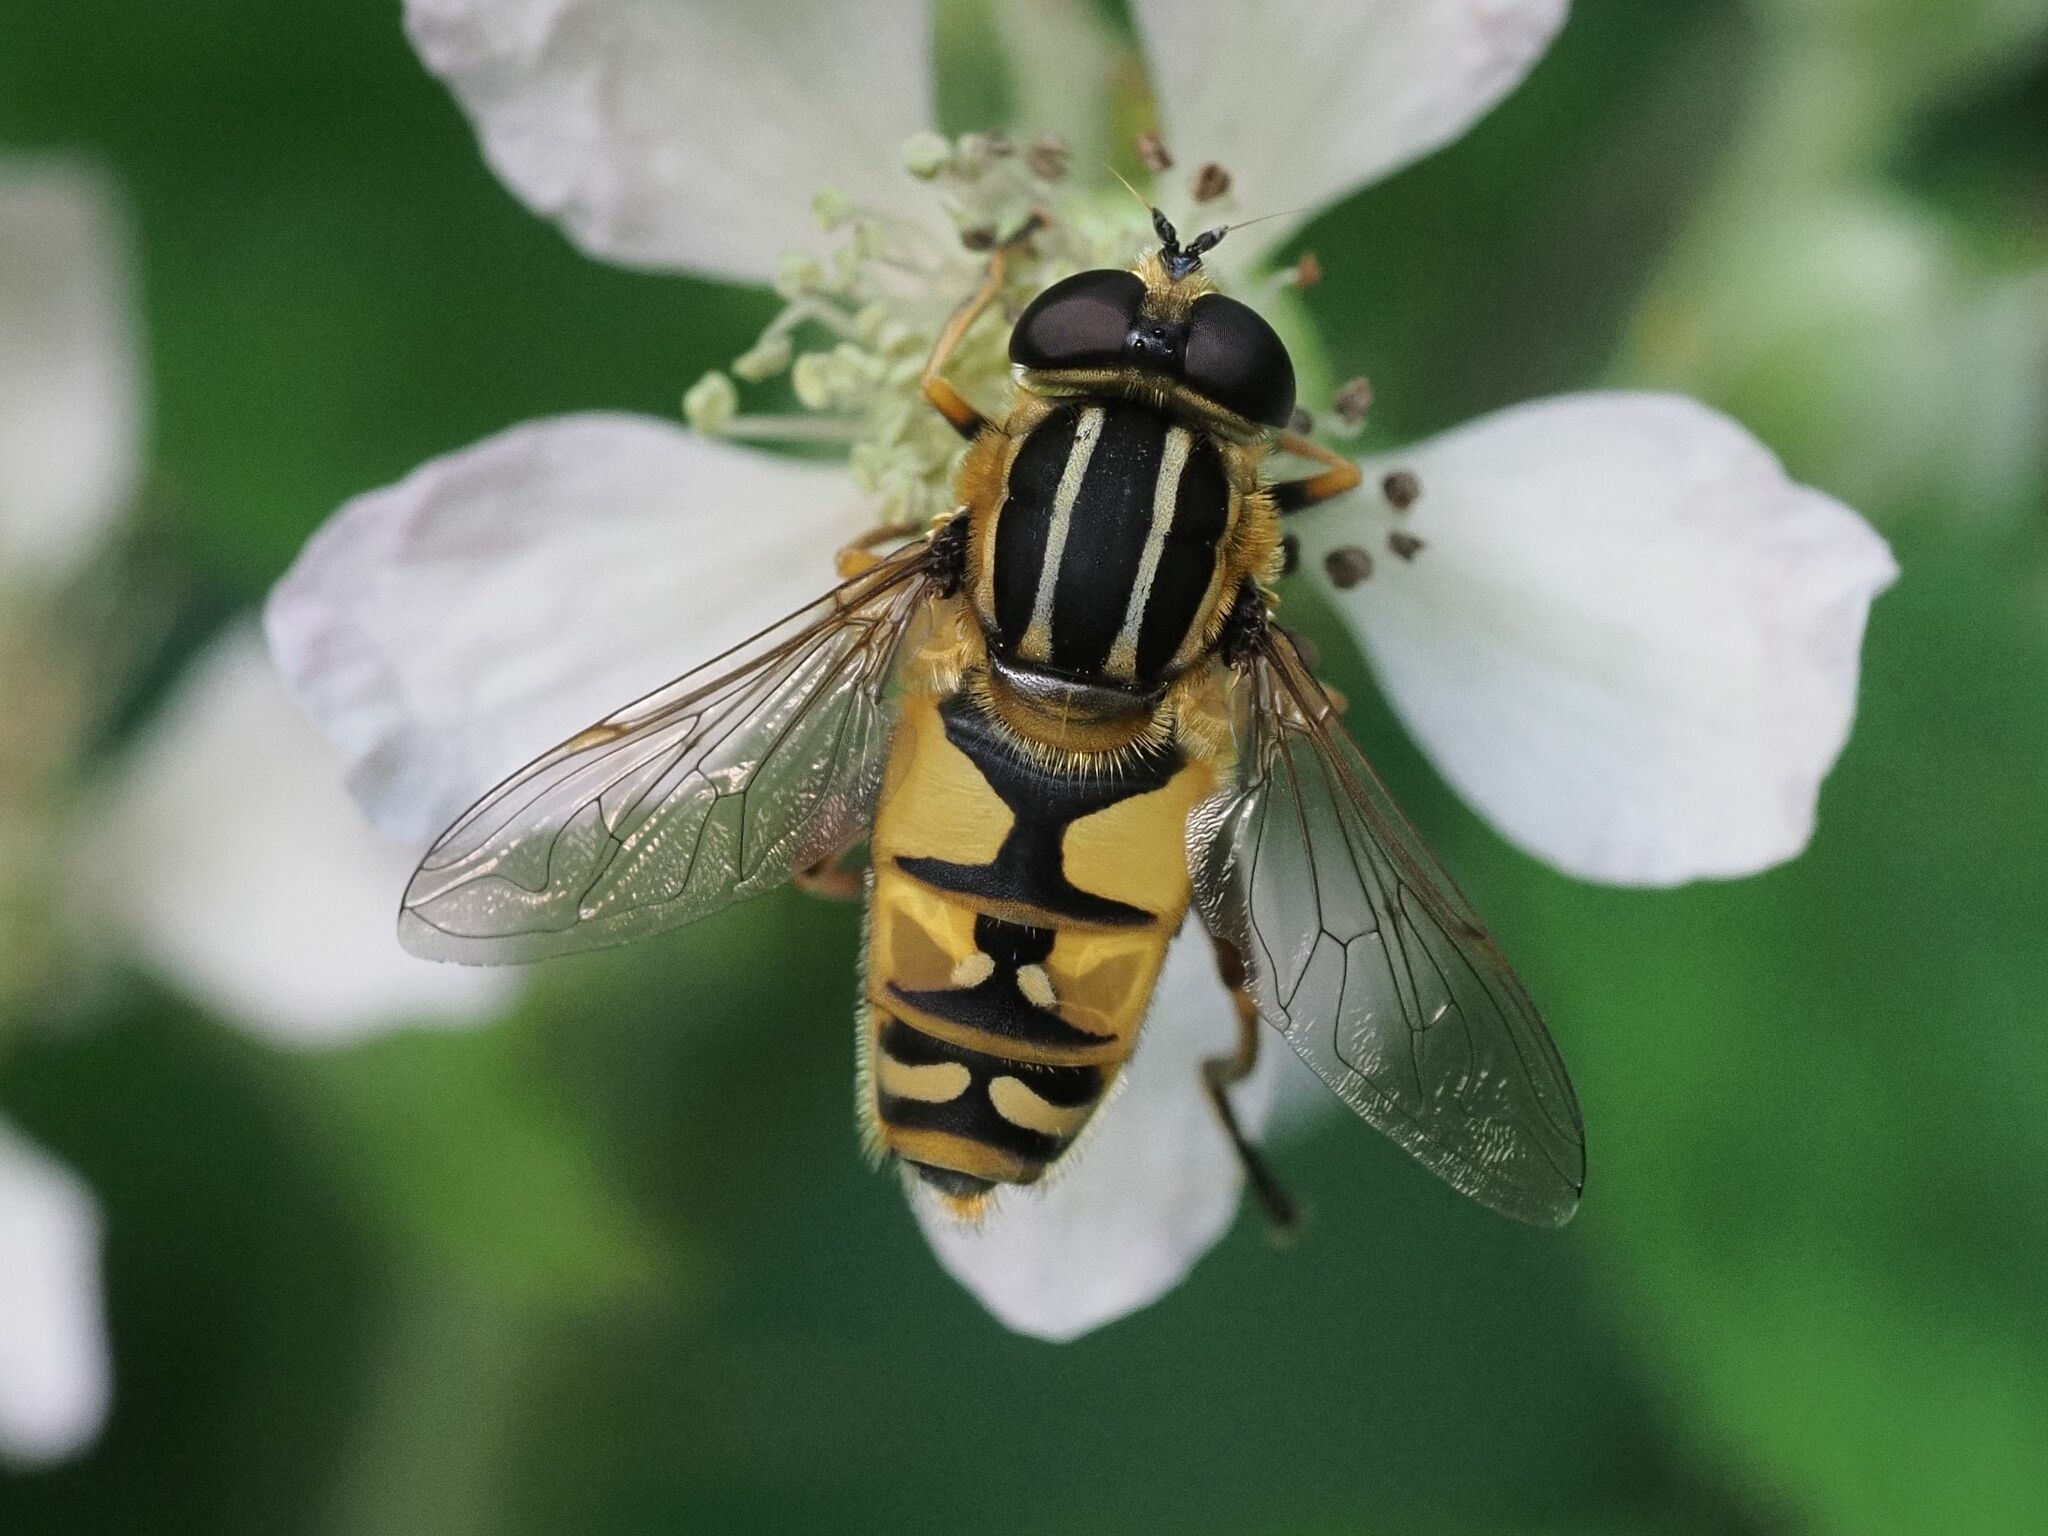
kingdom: Animalia
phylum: Arthropoda
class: Insecta
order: Diptera
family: Syrphidae
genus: Helophilus
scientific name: Helophilus pendulus
